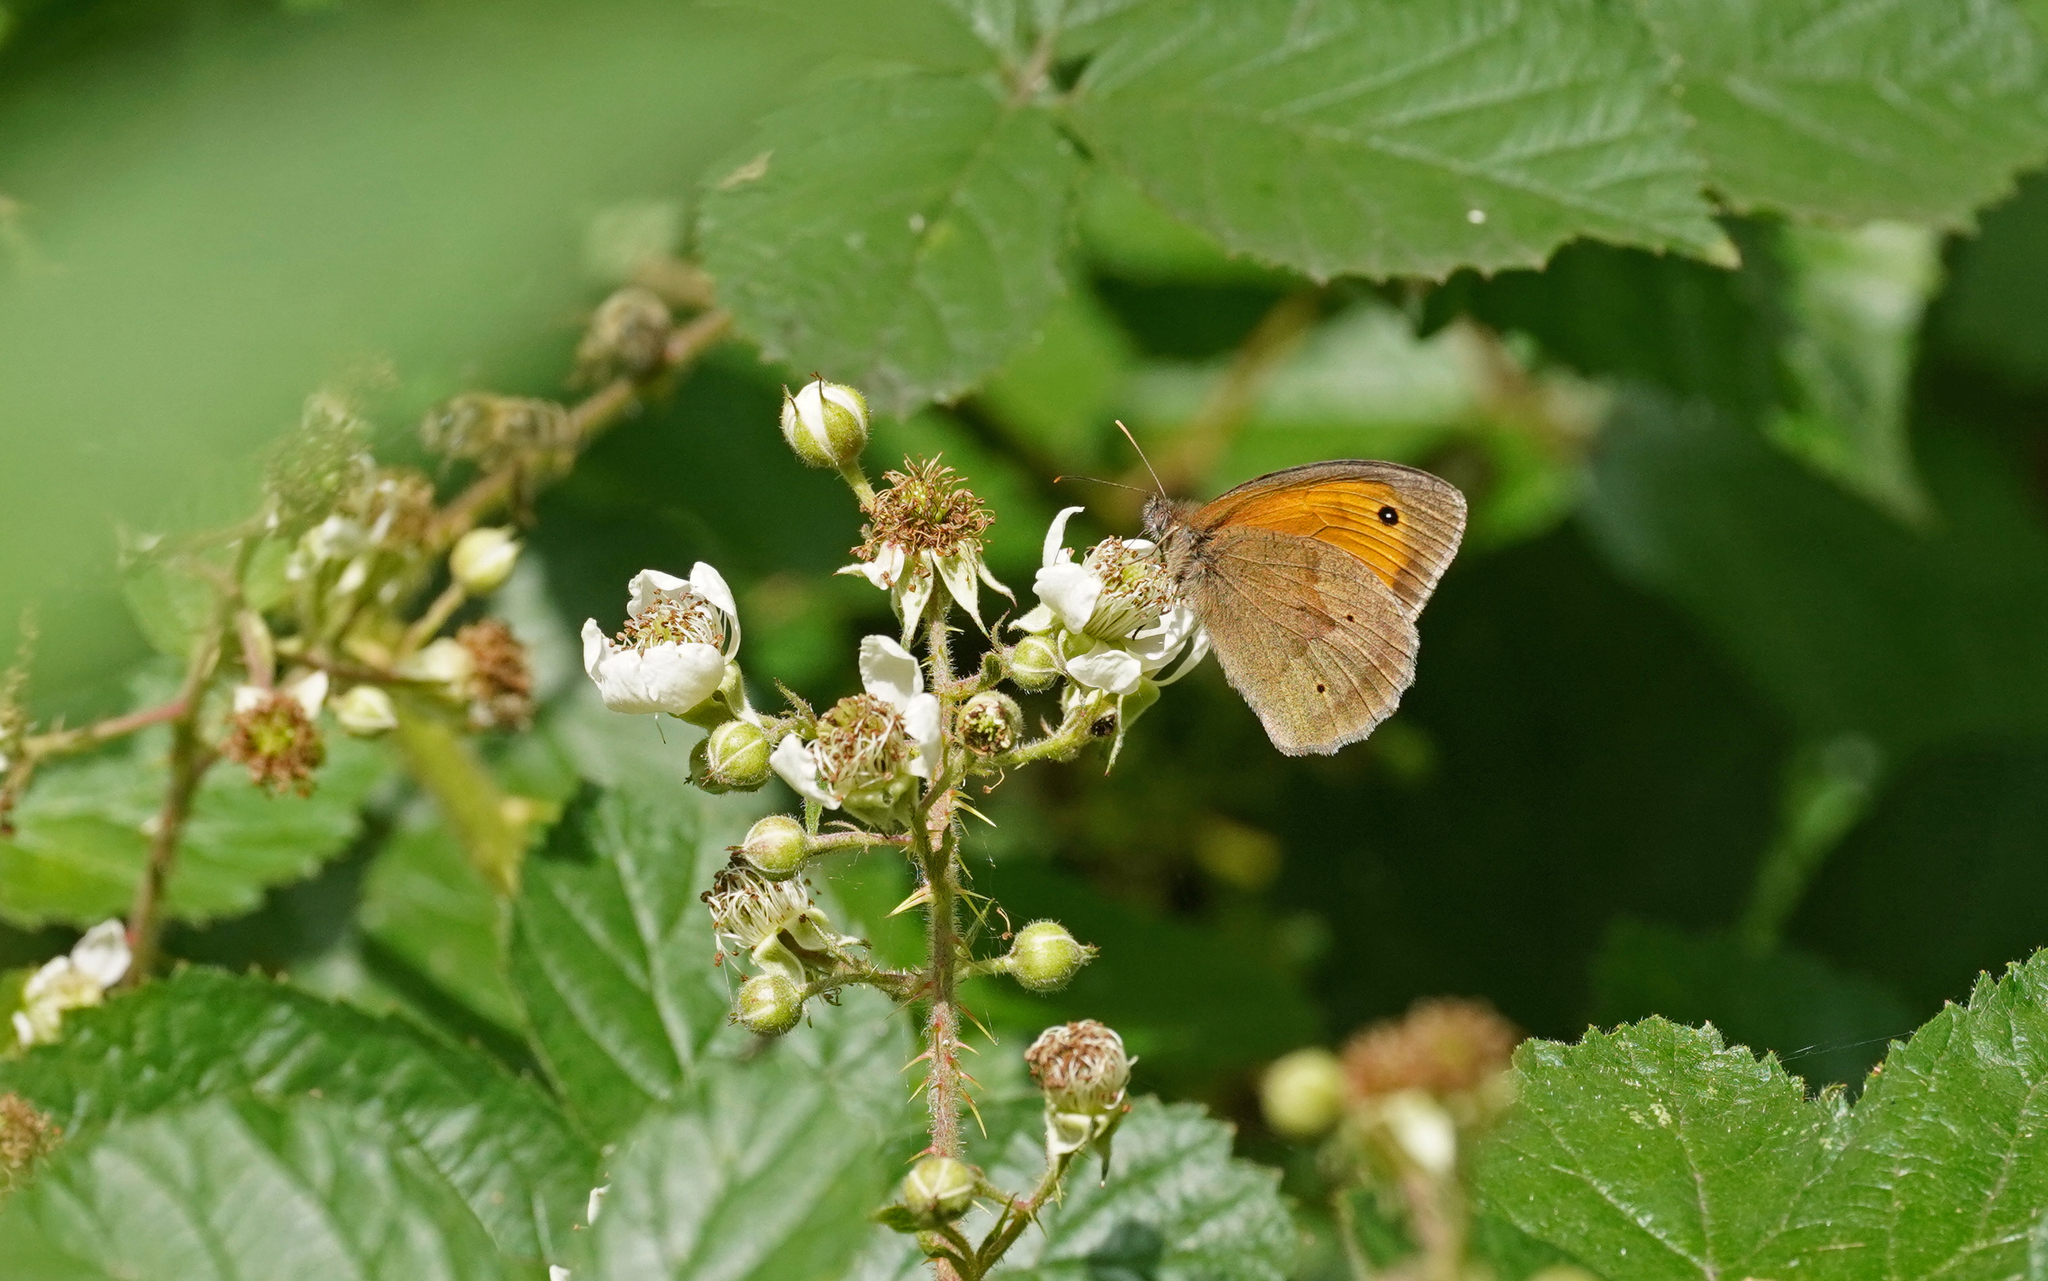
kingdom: Animalia
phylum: Arthropoda
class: Insecta
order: Lepidoptera
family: Nymphalidae
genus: Maniola
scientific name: Maniola jurtina
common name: Meadow brown
